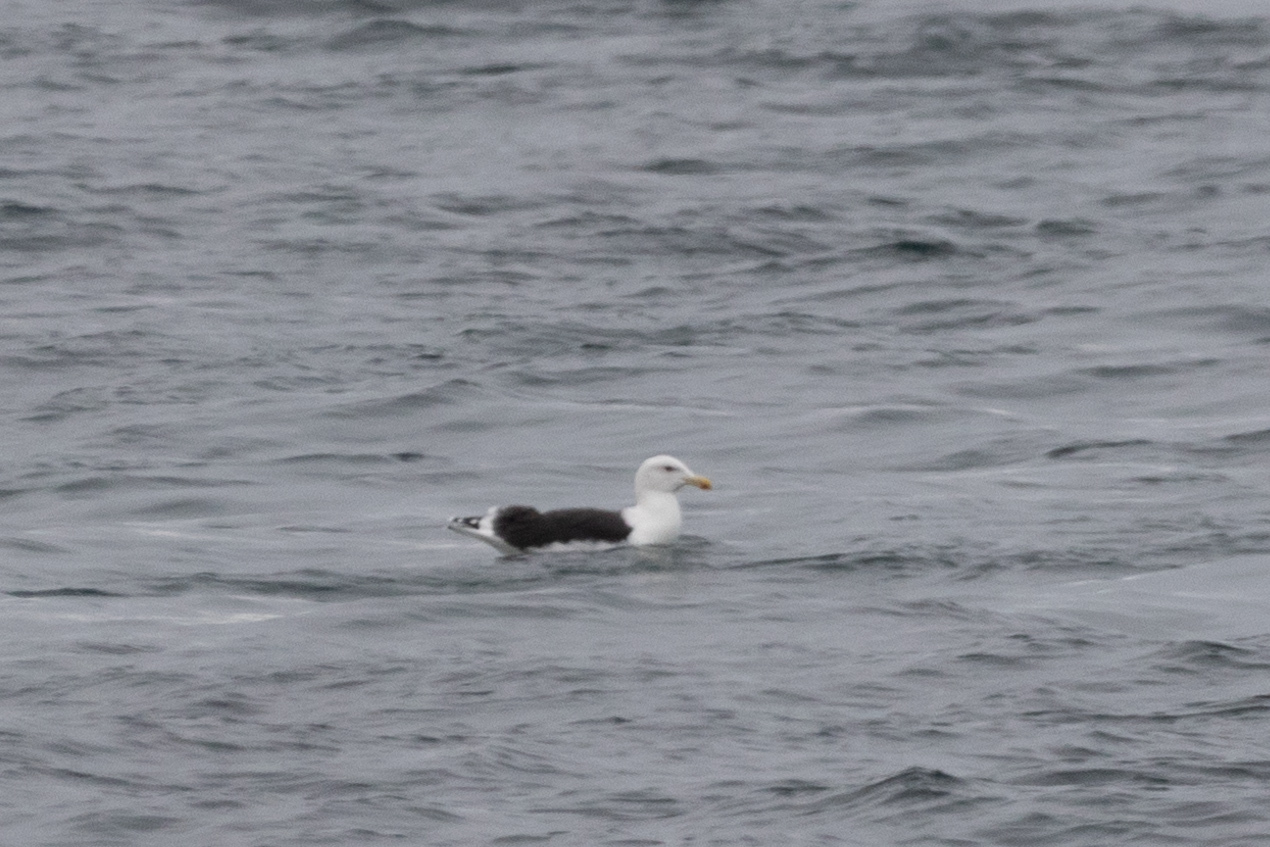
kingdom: Animalia
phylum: Chordata
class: Aves
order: Charadriiformes
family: Laridae
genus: Larus
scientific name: Larus marinus
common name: Great black-backed gull
